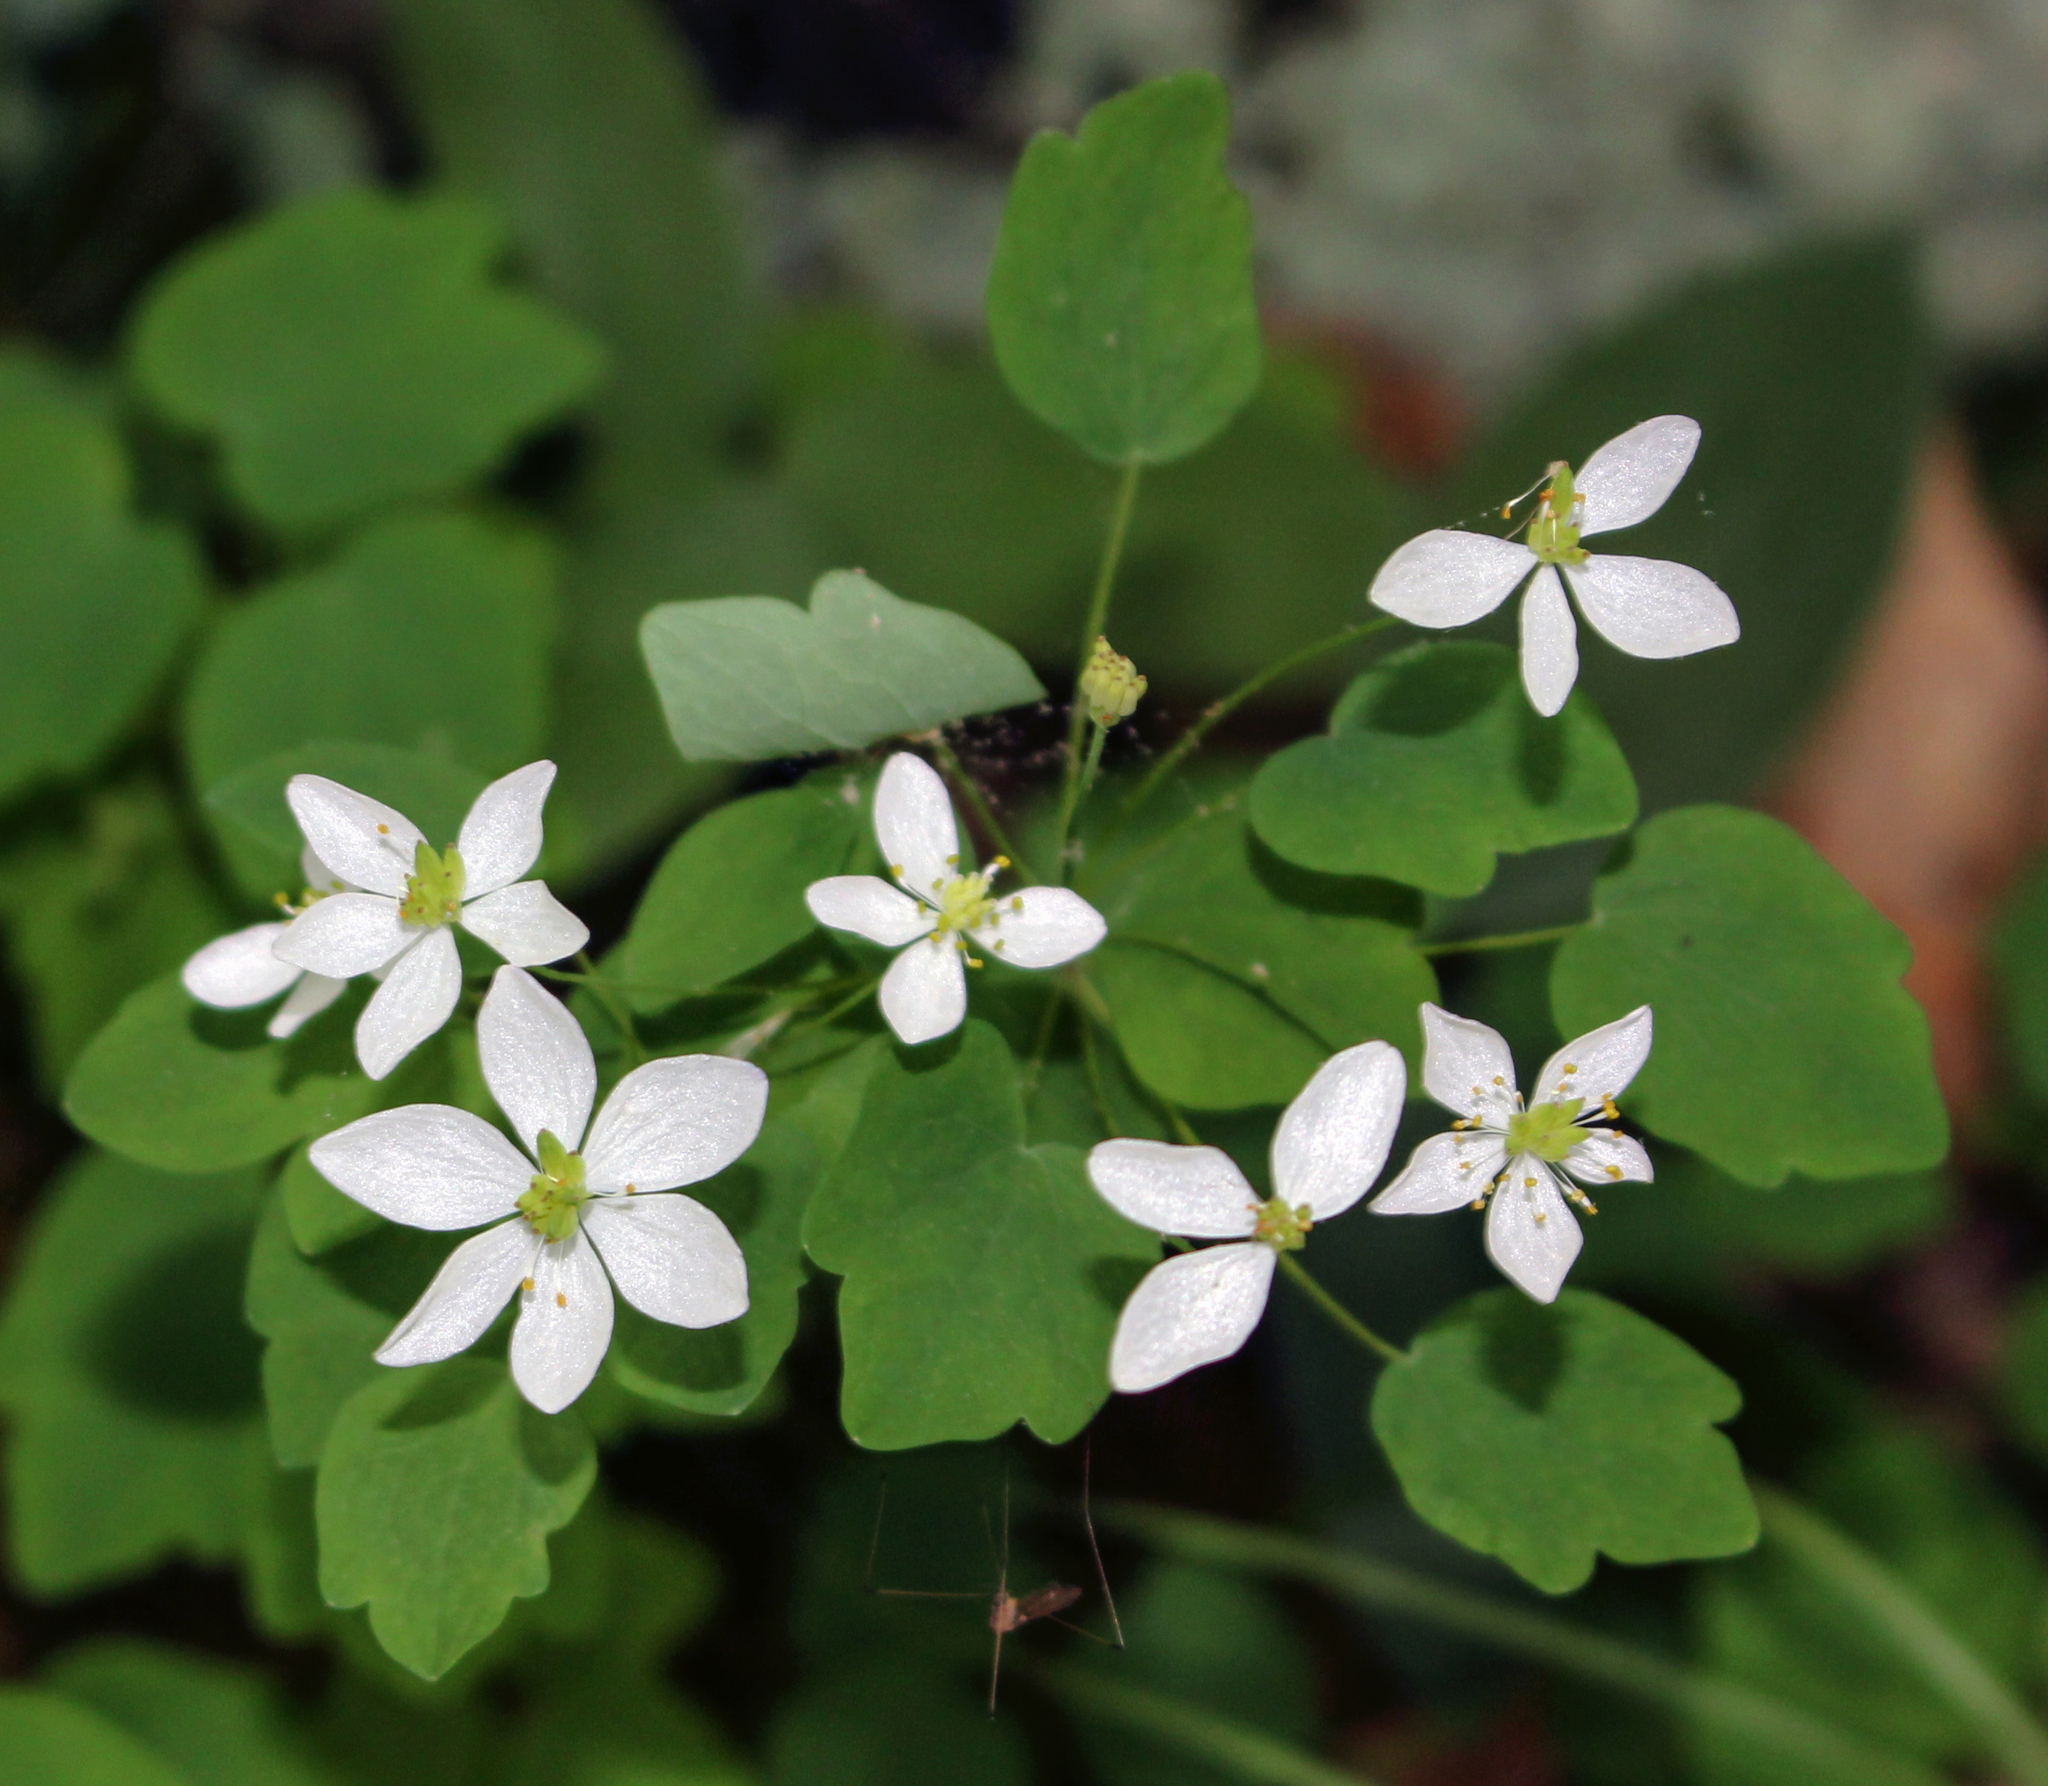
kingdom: Plantae
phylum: Tracheophyta
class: Magnoliopsida
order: Ranunculales
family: Ranunculaceae
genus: Thalictrum
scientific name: Thalictrum thalictroides
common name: Rue-anemone
